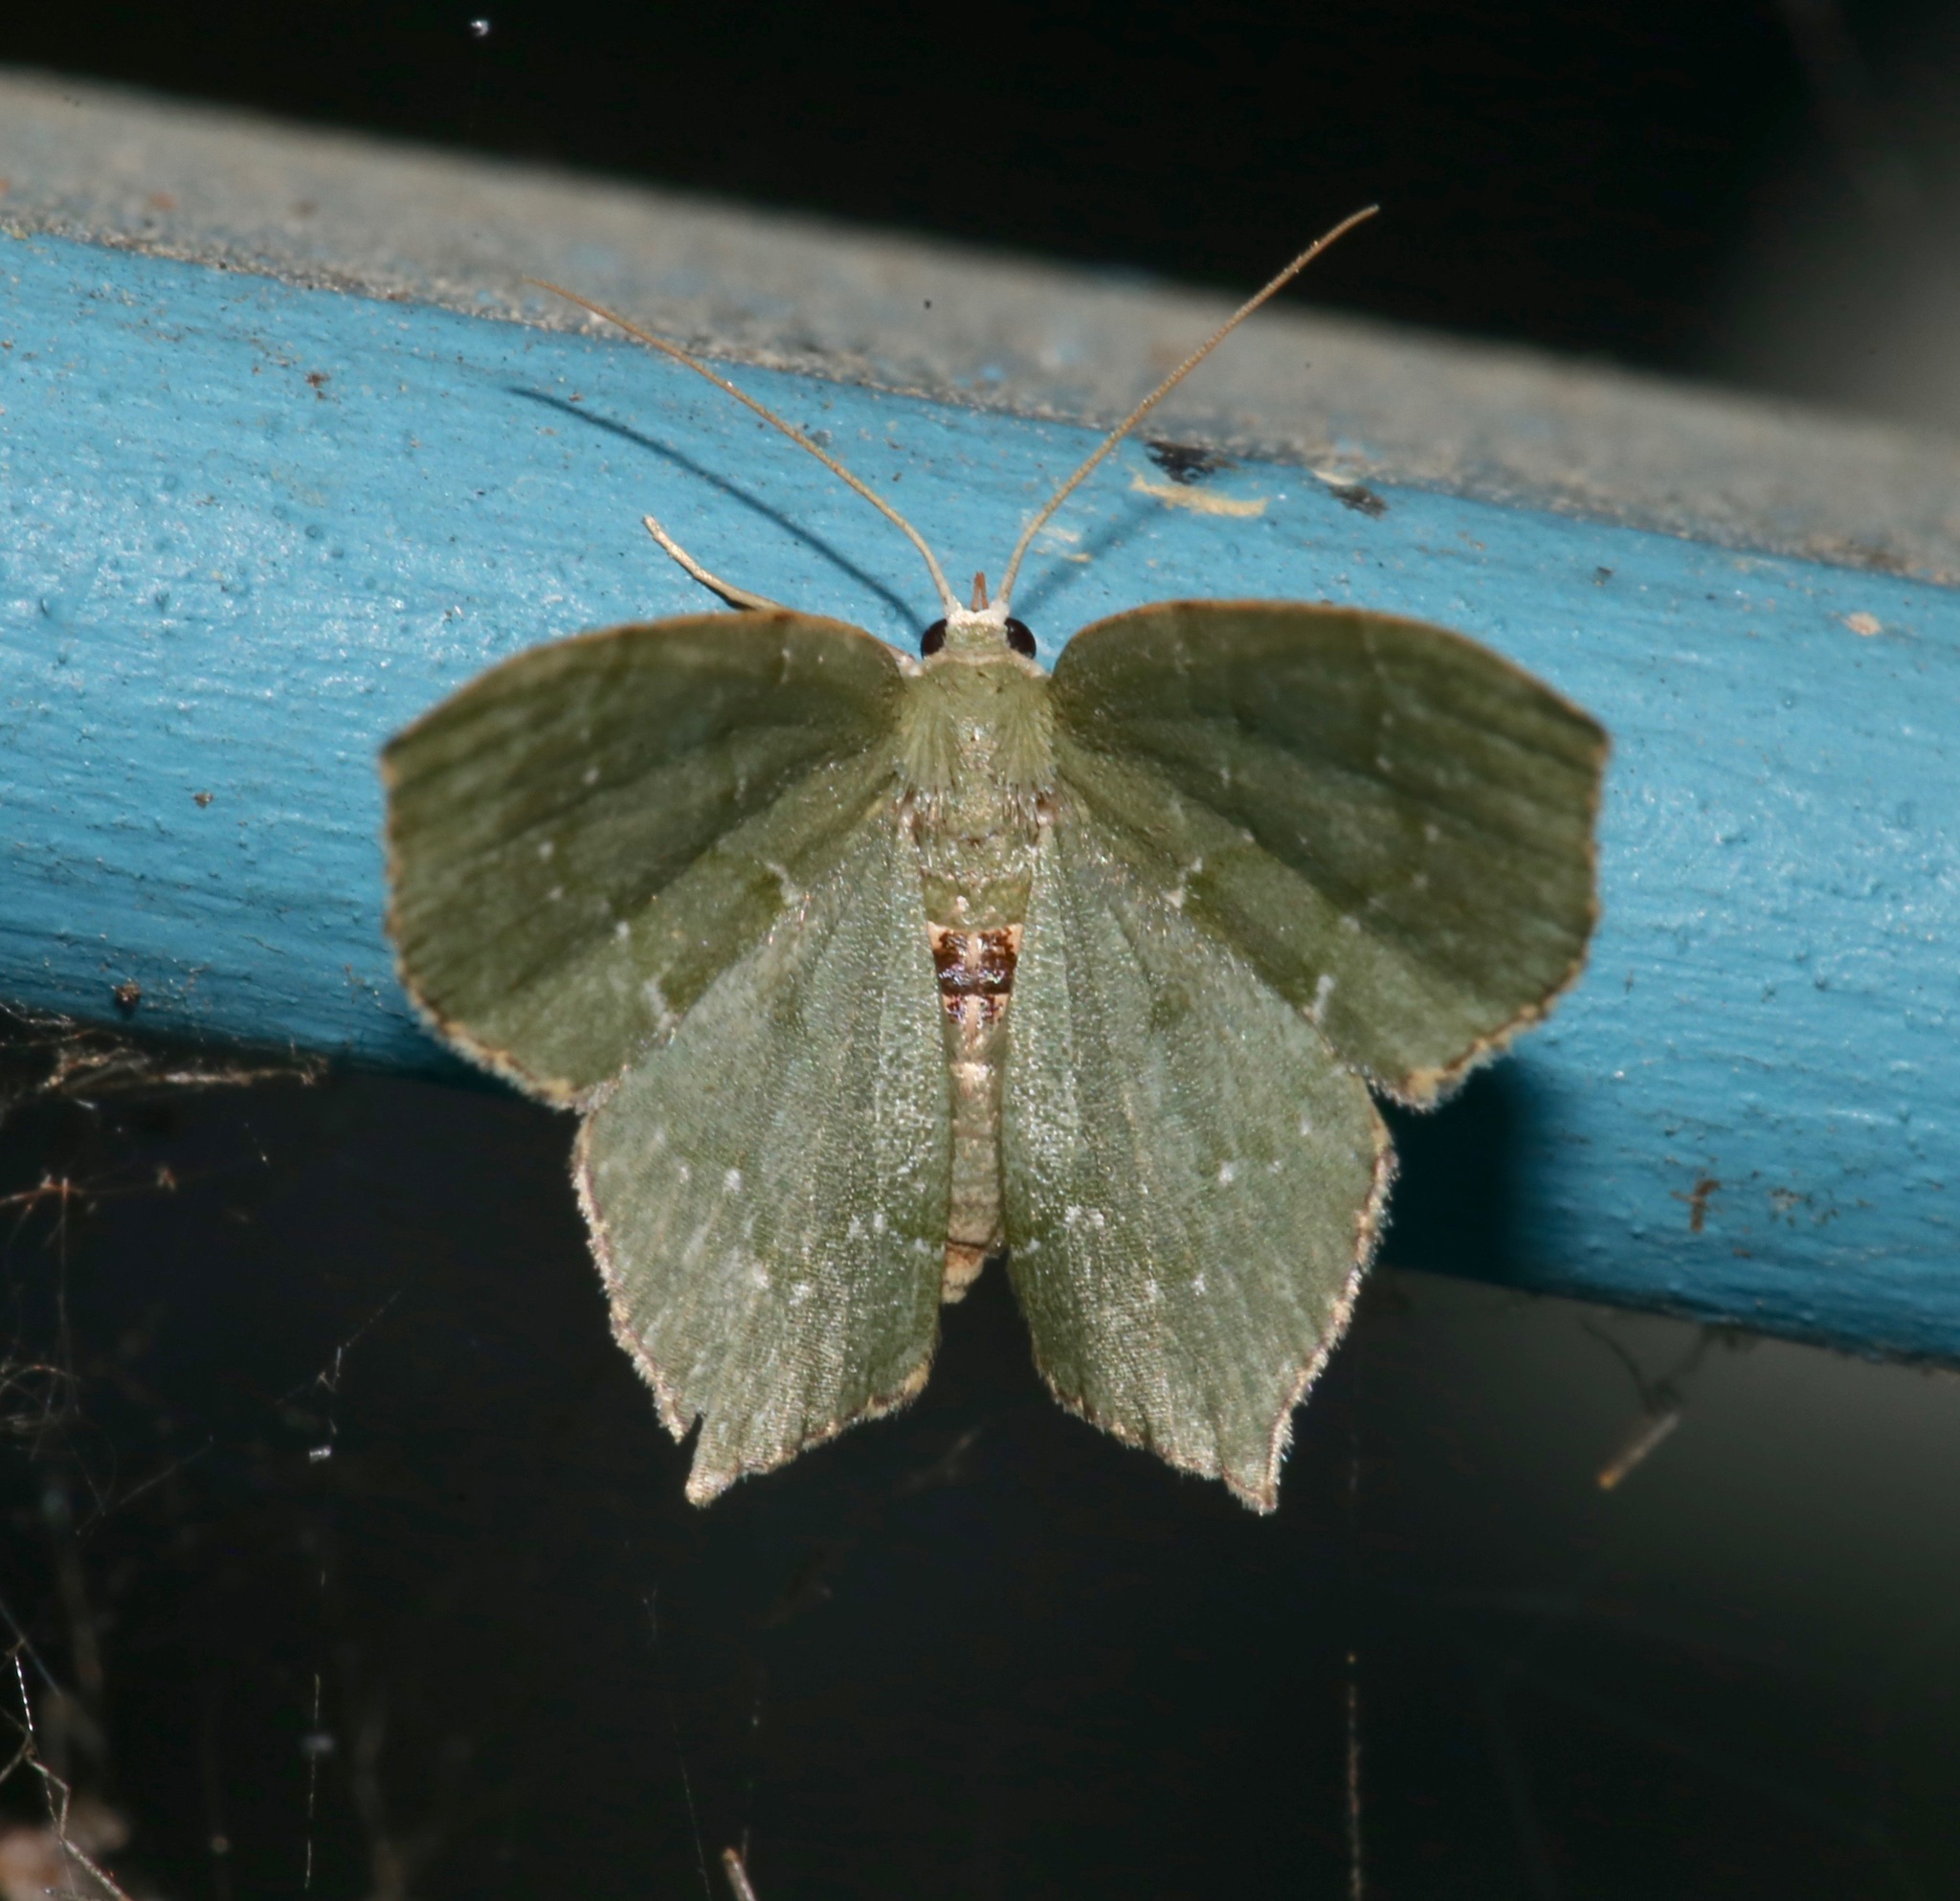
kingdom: Animalia
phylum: Arthropoda
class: Insecta
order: Lepidoptera
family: Geometridae
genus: Chloropteryx
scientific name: Chloropteryx tepperaria
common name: Angle winged emerald moth
